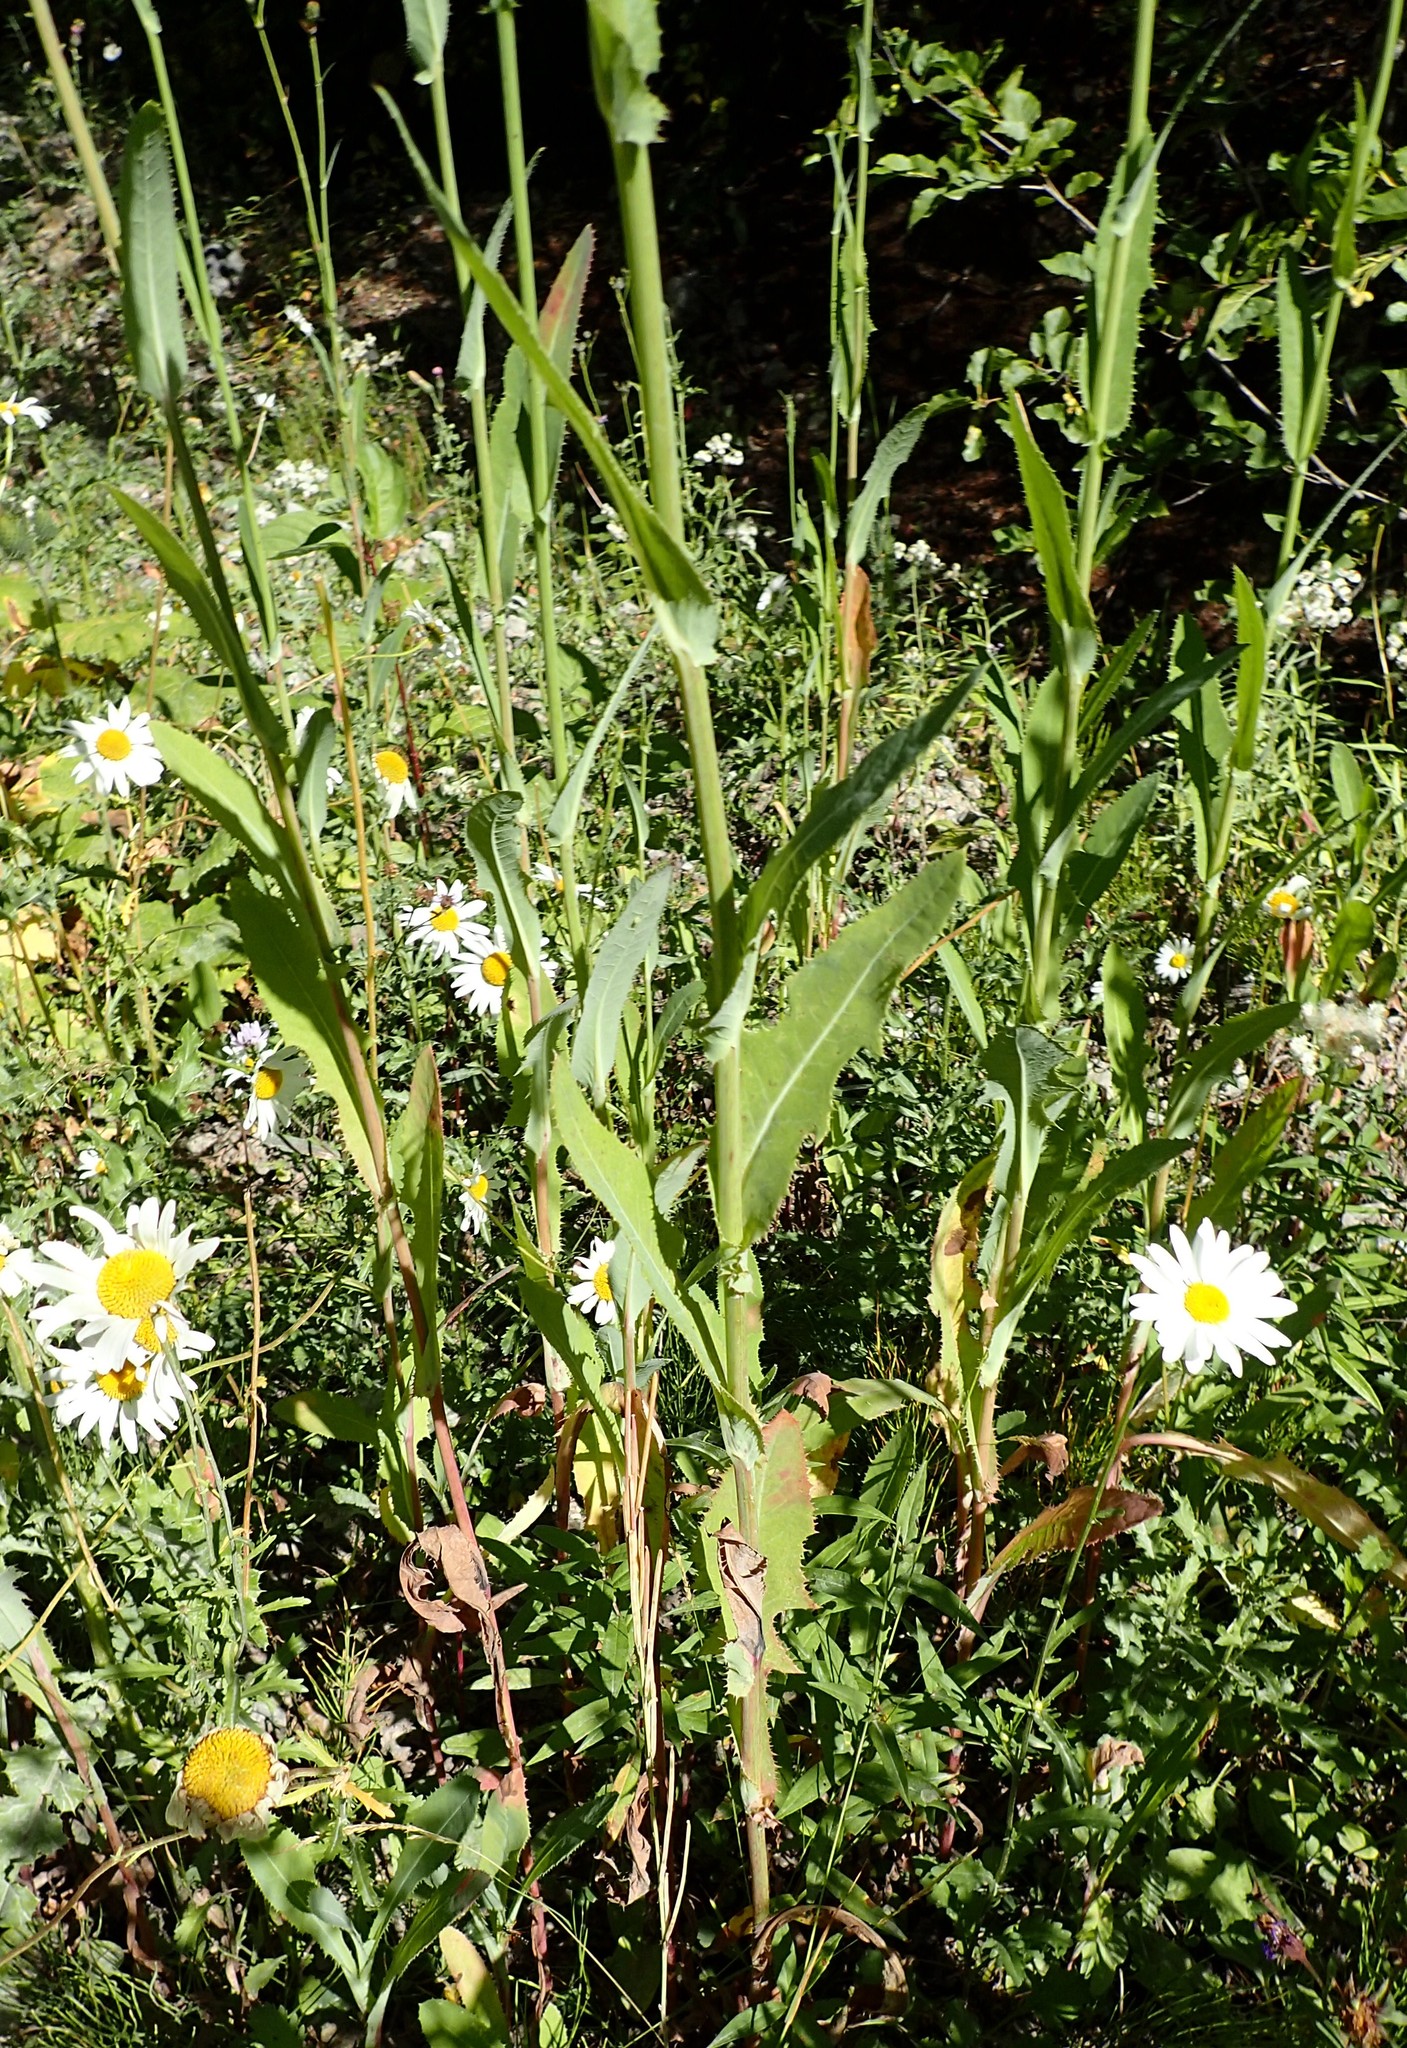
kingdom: Plantae
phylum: Tracheophyta
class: Magnoliopsida
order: Asterales
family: Asteraceae
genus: Sonchus
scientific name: Sonchus arvensis
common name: Perennial sow-thistle
